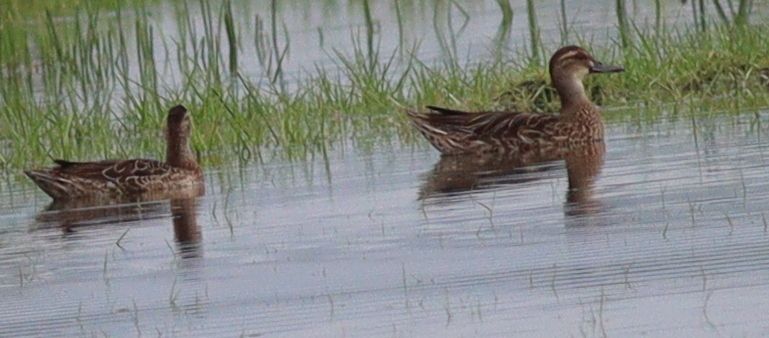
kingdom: Animalia
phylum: Chordata
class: Aves
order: Anseriformes
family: Anatidae
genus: Spatula
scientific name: Spatula querquedula
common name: Garganey
